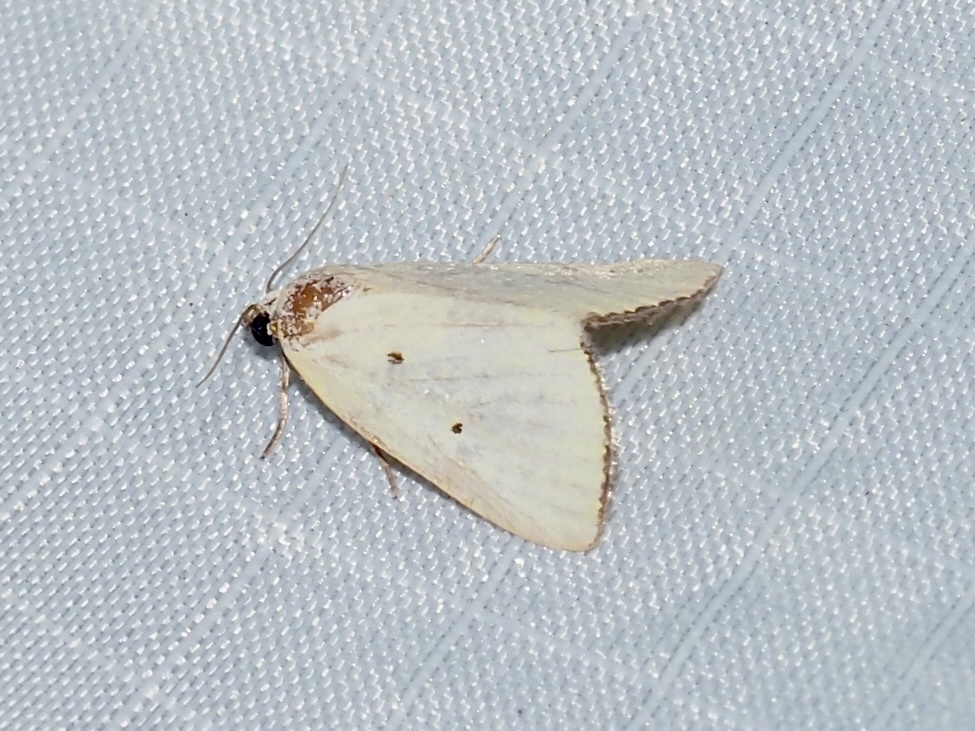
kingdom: Animalia
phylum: Arthropoda
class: Insecta
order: Lepidoptera
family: Noctuidae
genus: Marimatha
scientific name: Marimatha nigrofimbria
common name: Black-bordered lemon moth
